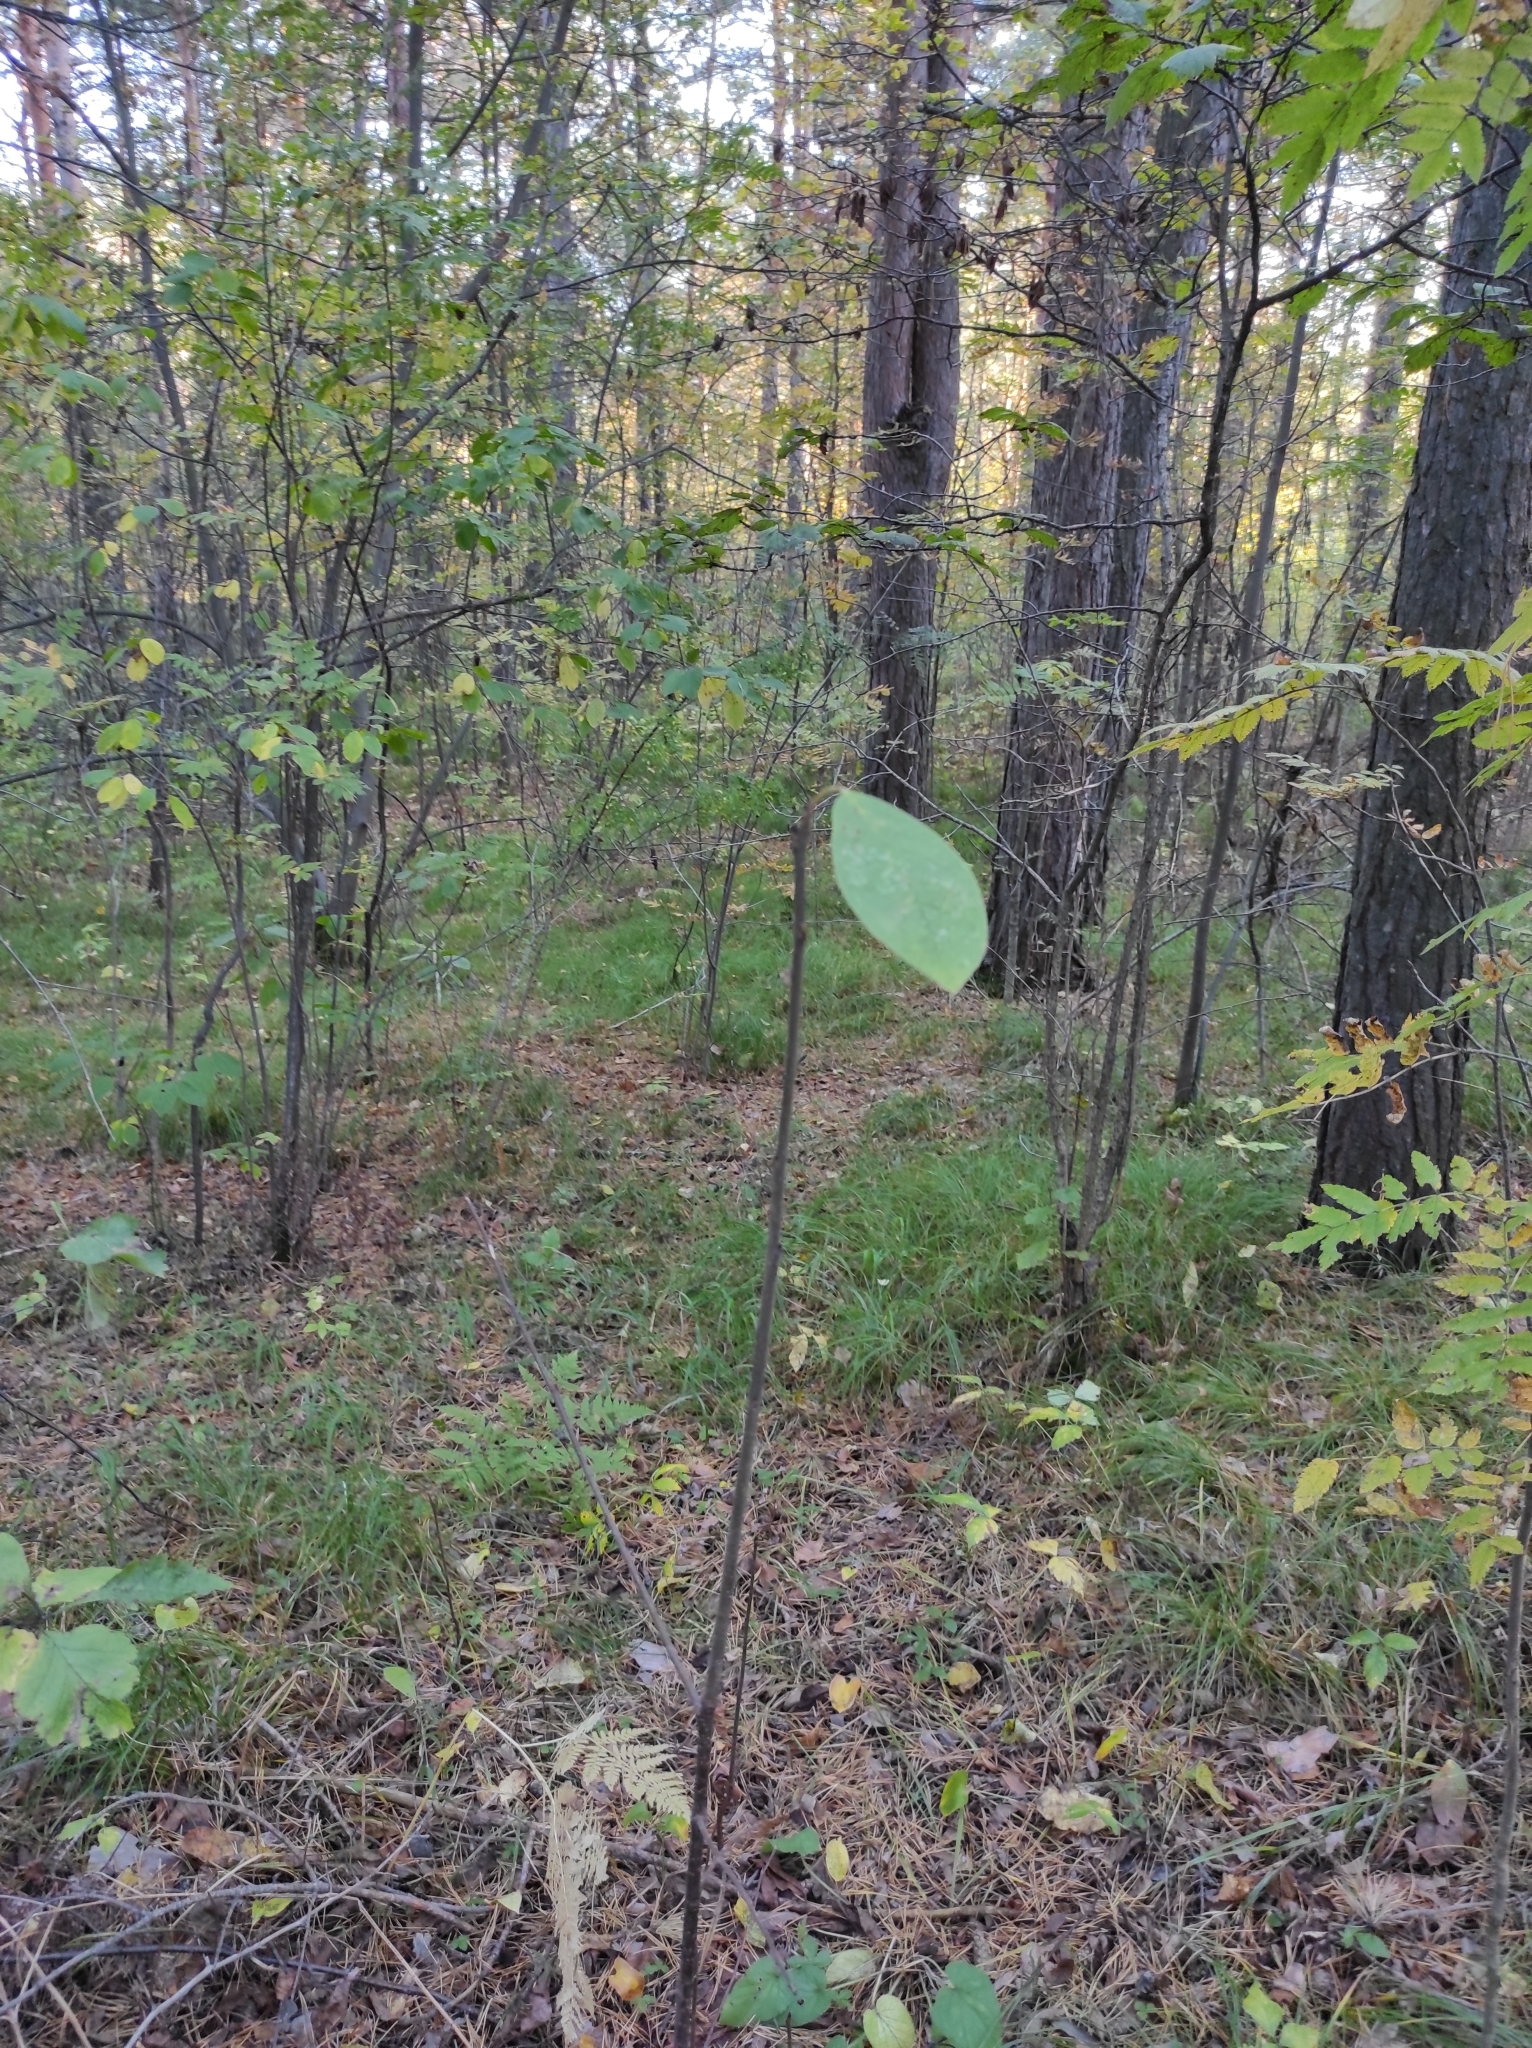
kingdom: Plantae
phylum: Tracheophyta
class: Magnoliopsida
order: Rosales
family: Rosaceae
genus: Prunus
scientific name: Prunus padus
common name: Bird cherry
